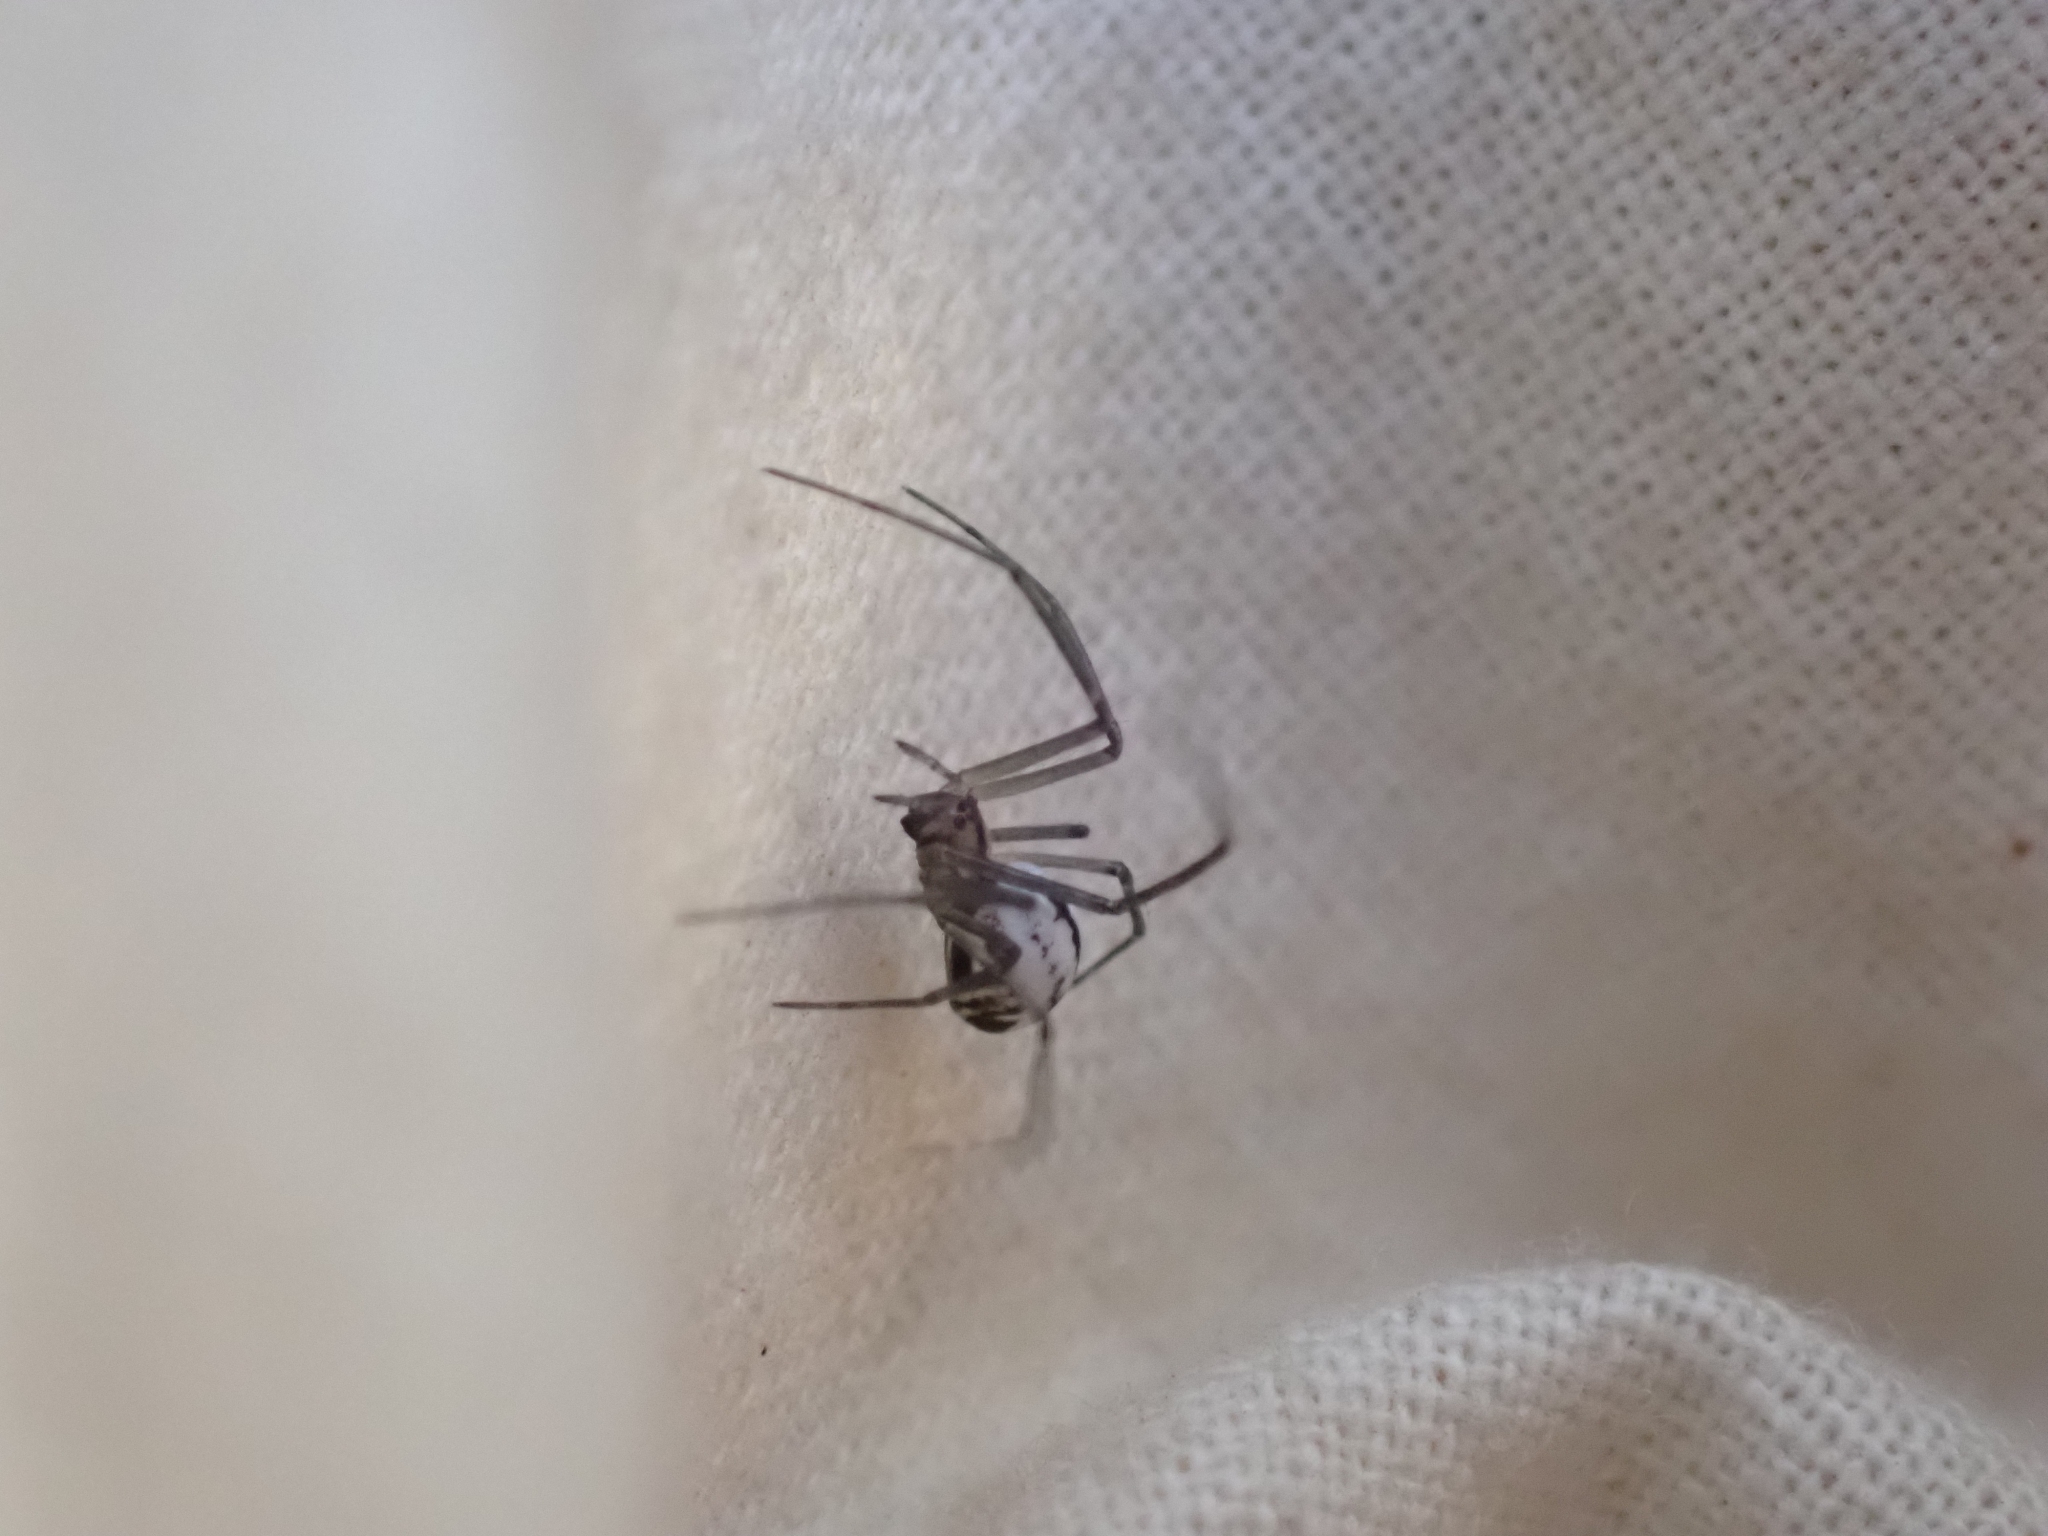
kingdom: Animalia
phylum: Arthropoda
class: Arachnida
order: Araneae
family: Linyphiidae
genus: Neriene
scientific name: Neriene litigiosa
